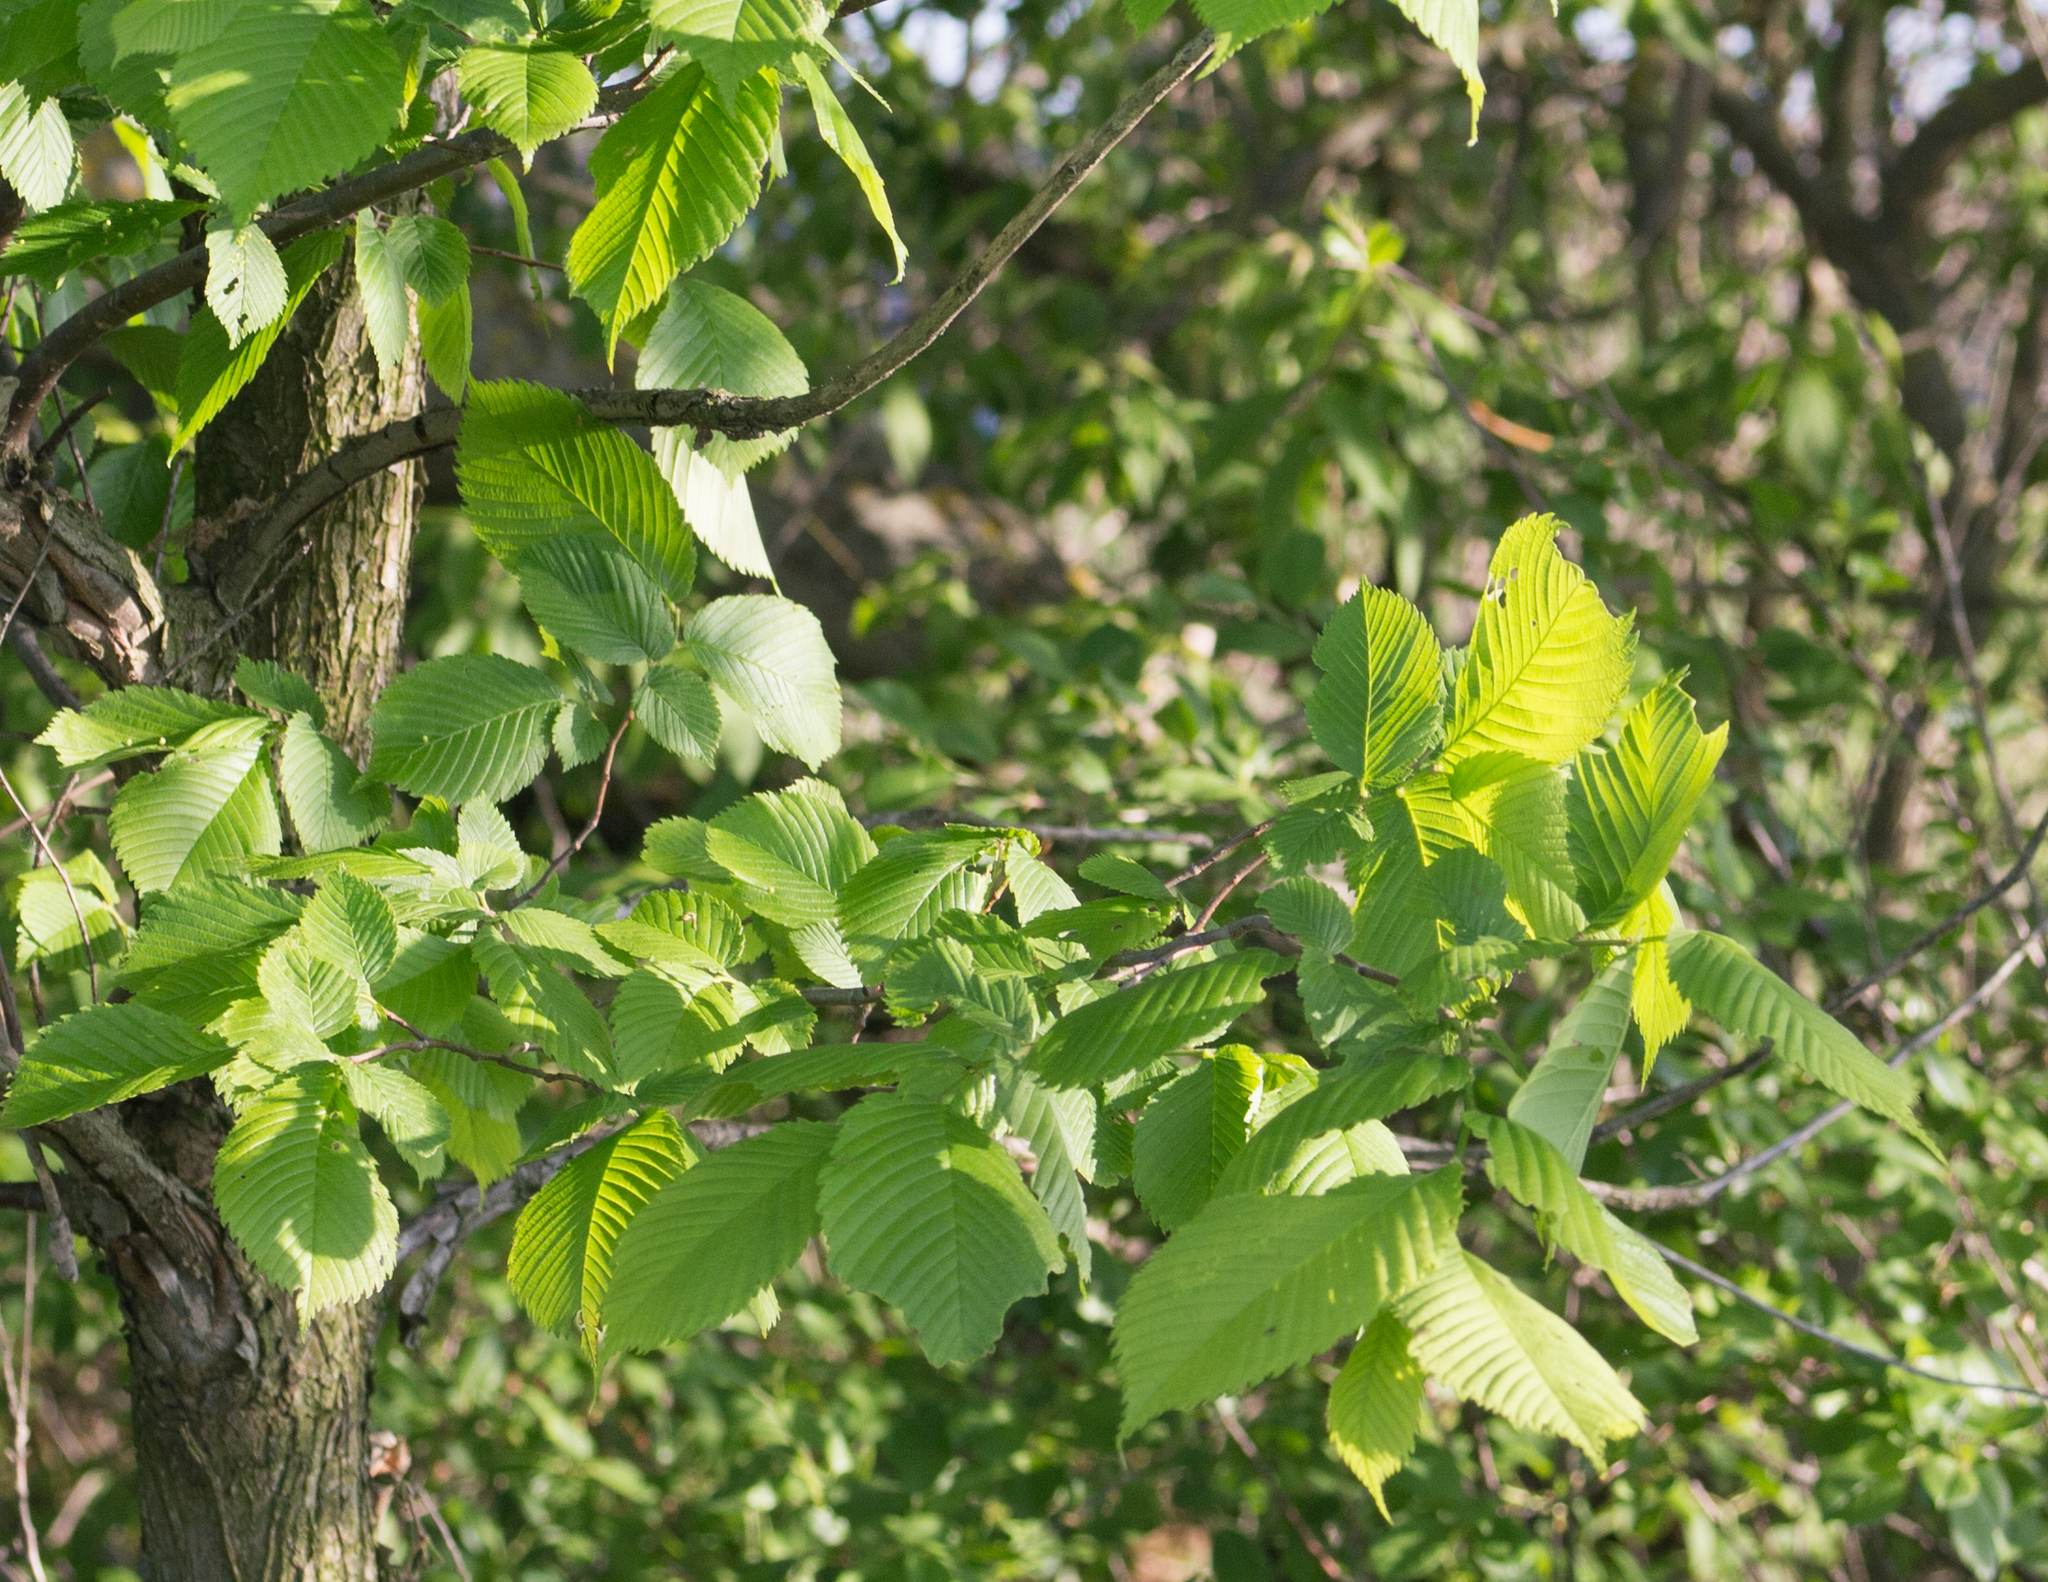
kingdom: Plantae
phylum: Tracheophyta
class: Magnoliopsida
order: Rosales
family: Ulmaceae
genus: Ulmus
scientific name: Ulmus laevis
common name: European white-elm
